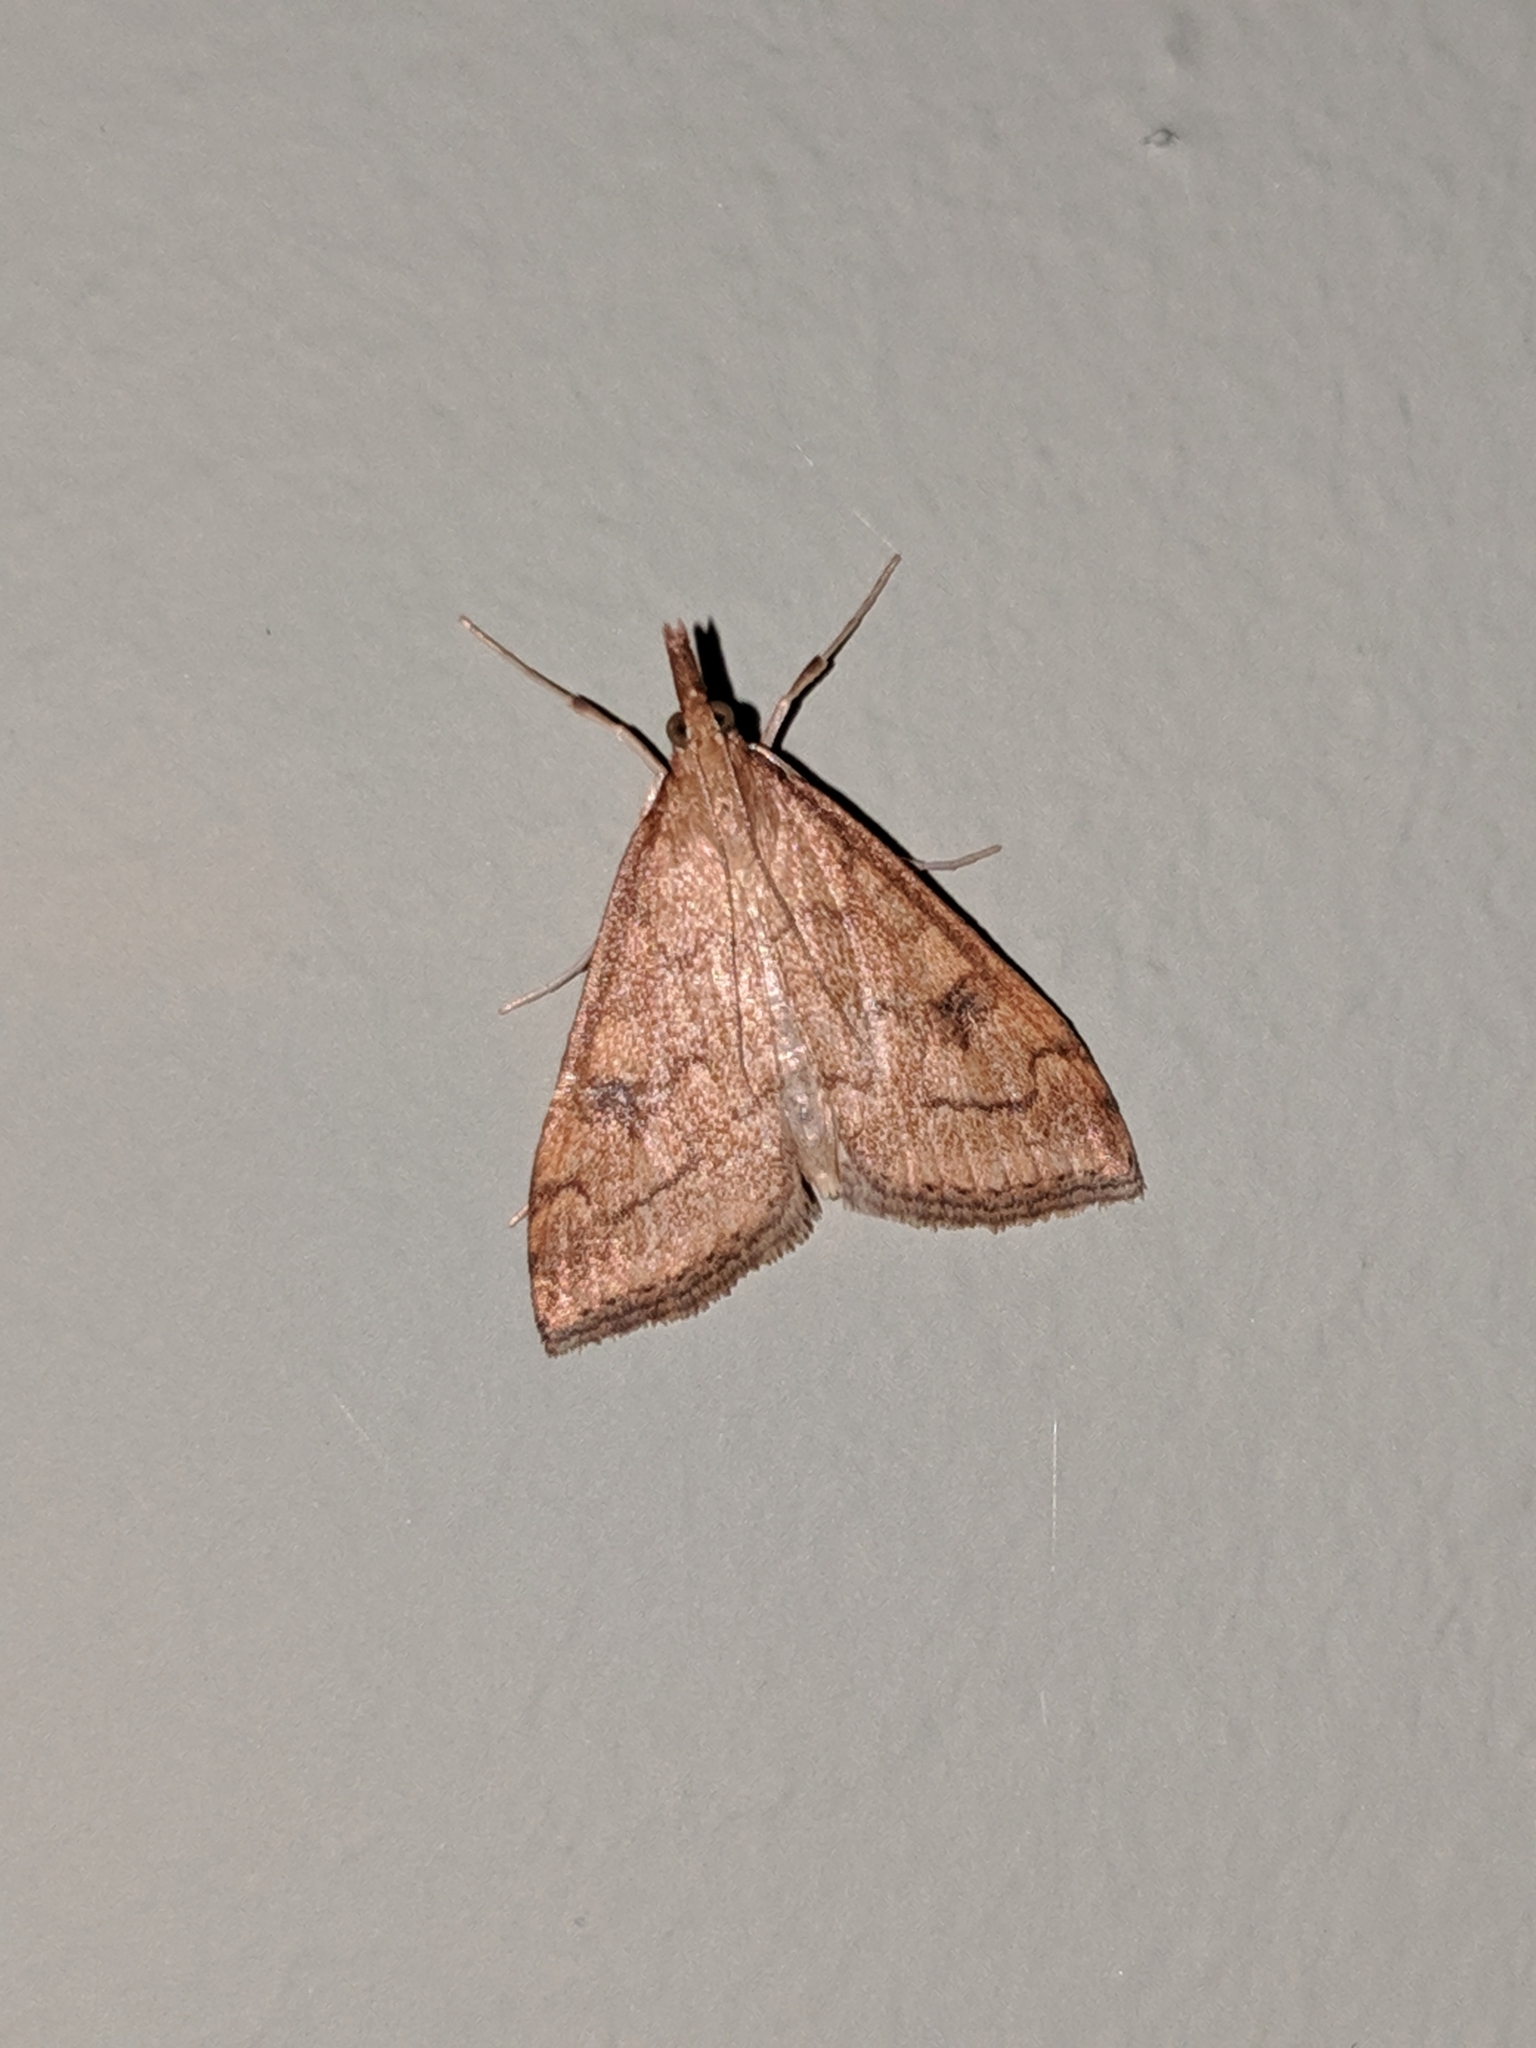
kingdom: Animalia
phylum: Arthropoda
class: Insecta
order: Lepidoptera
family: Crambidae
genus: Udea
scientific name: Udea profundalis
